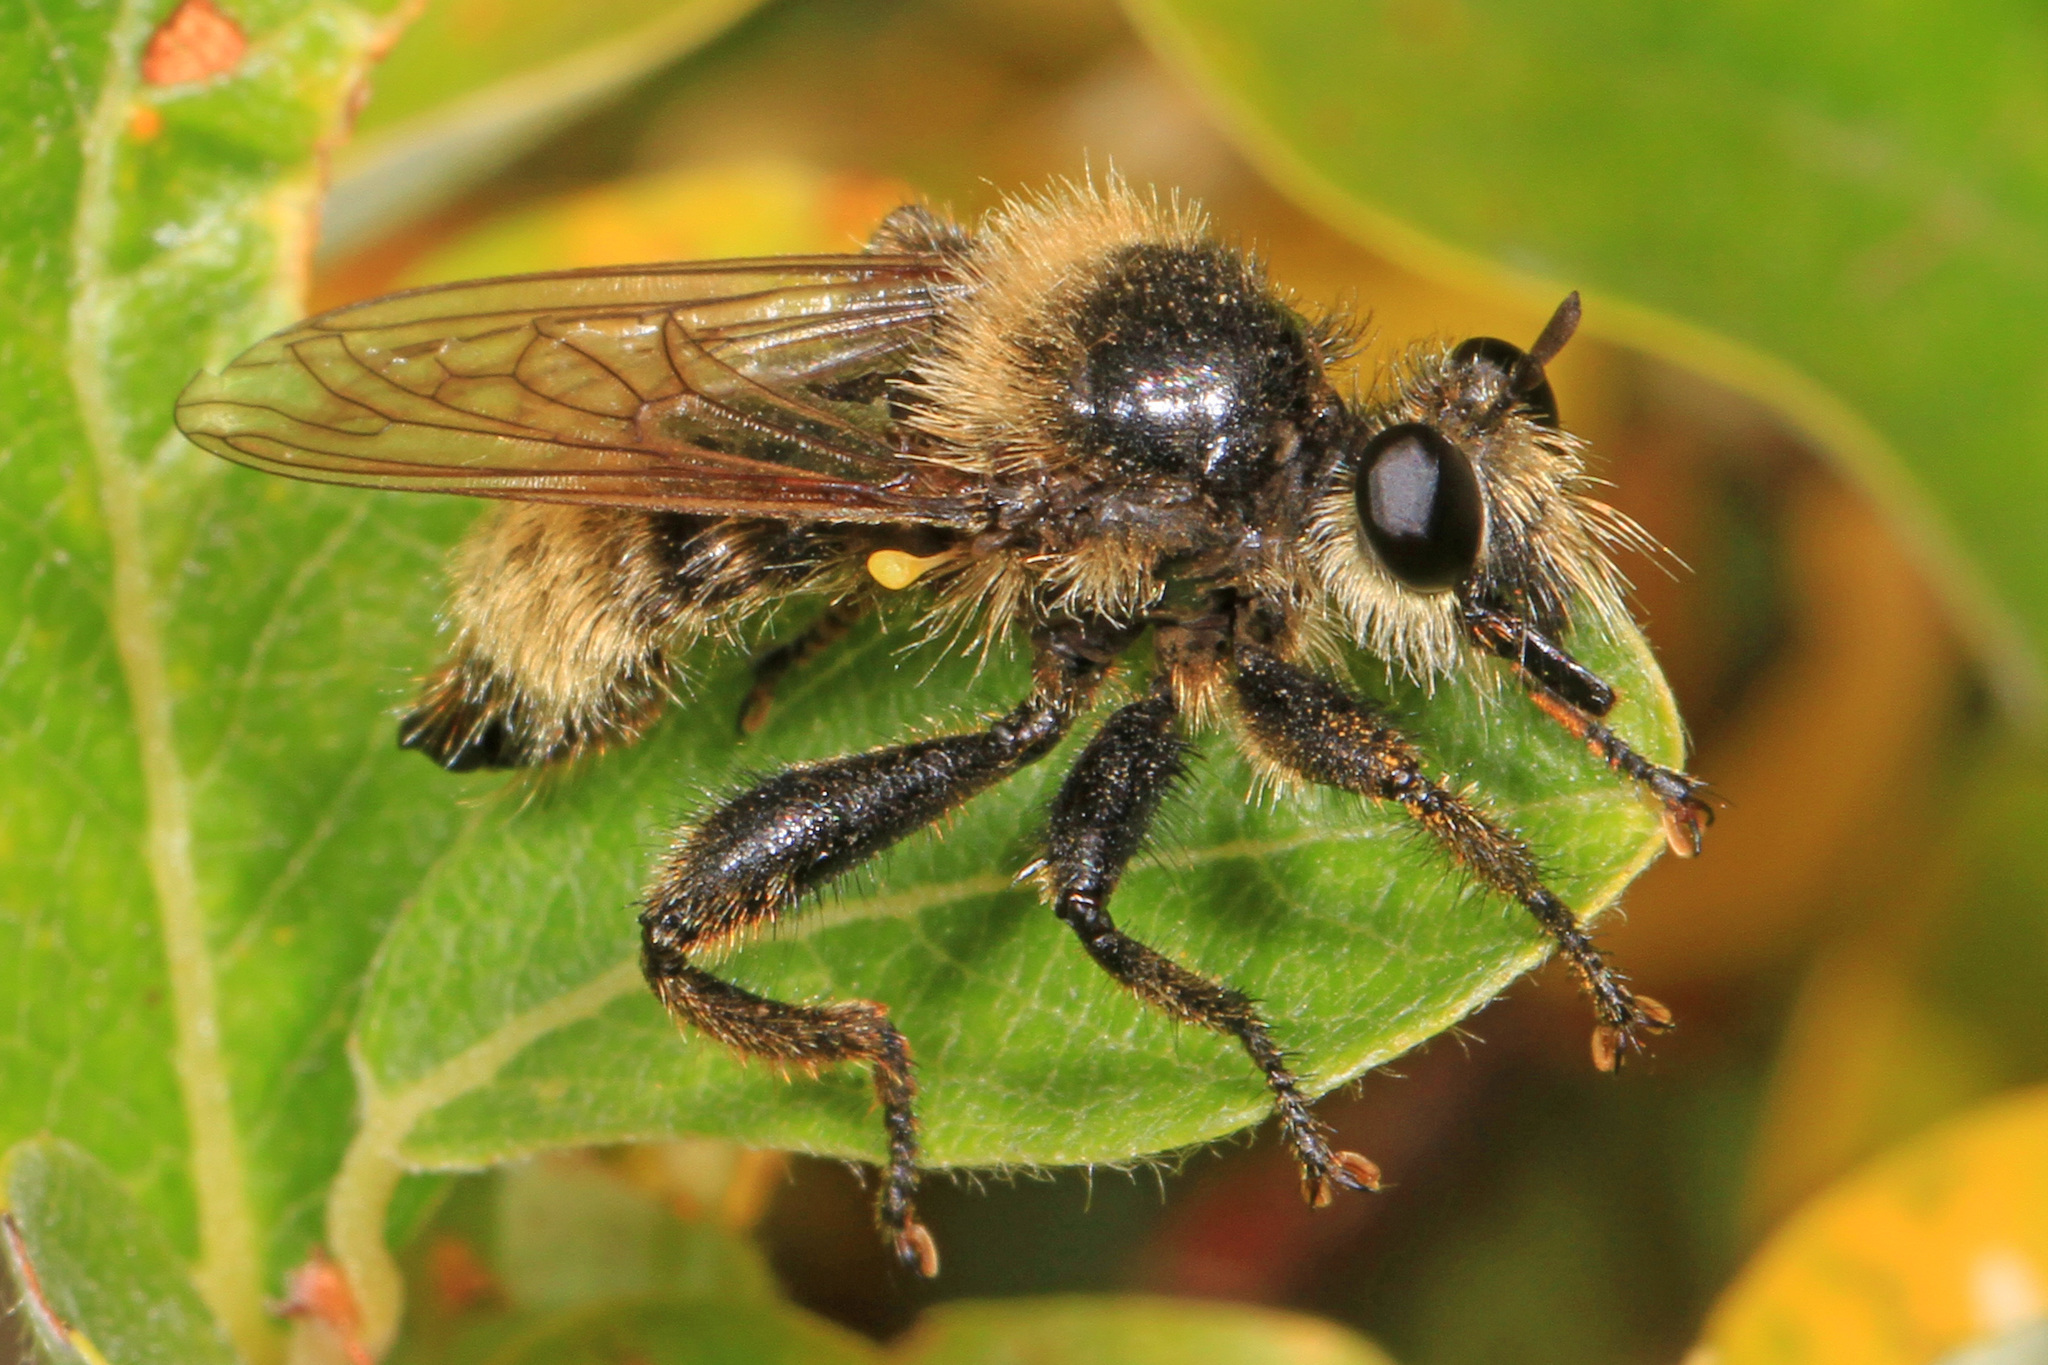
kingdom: Animalia
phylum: Arthropoda
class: Insecta
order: Diptera
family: Asilidae
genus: Laphria
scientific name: Laphria partitor
